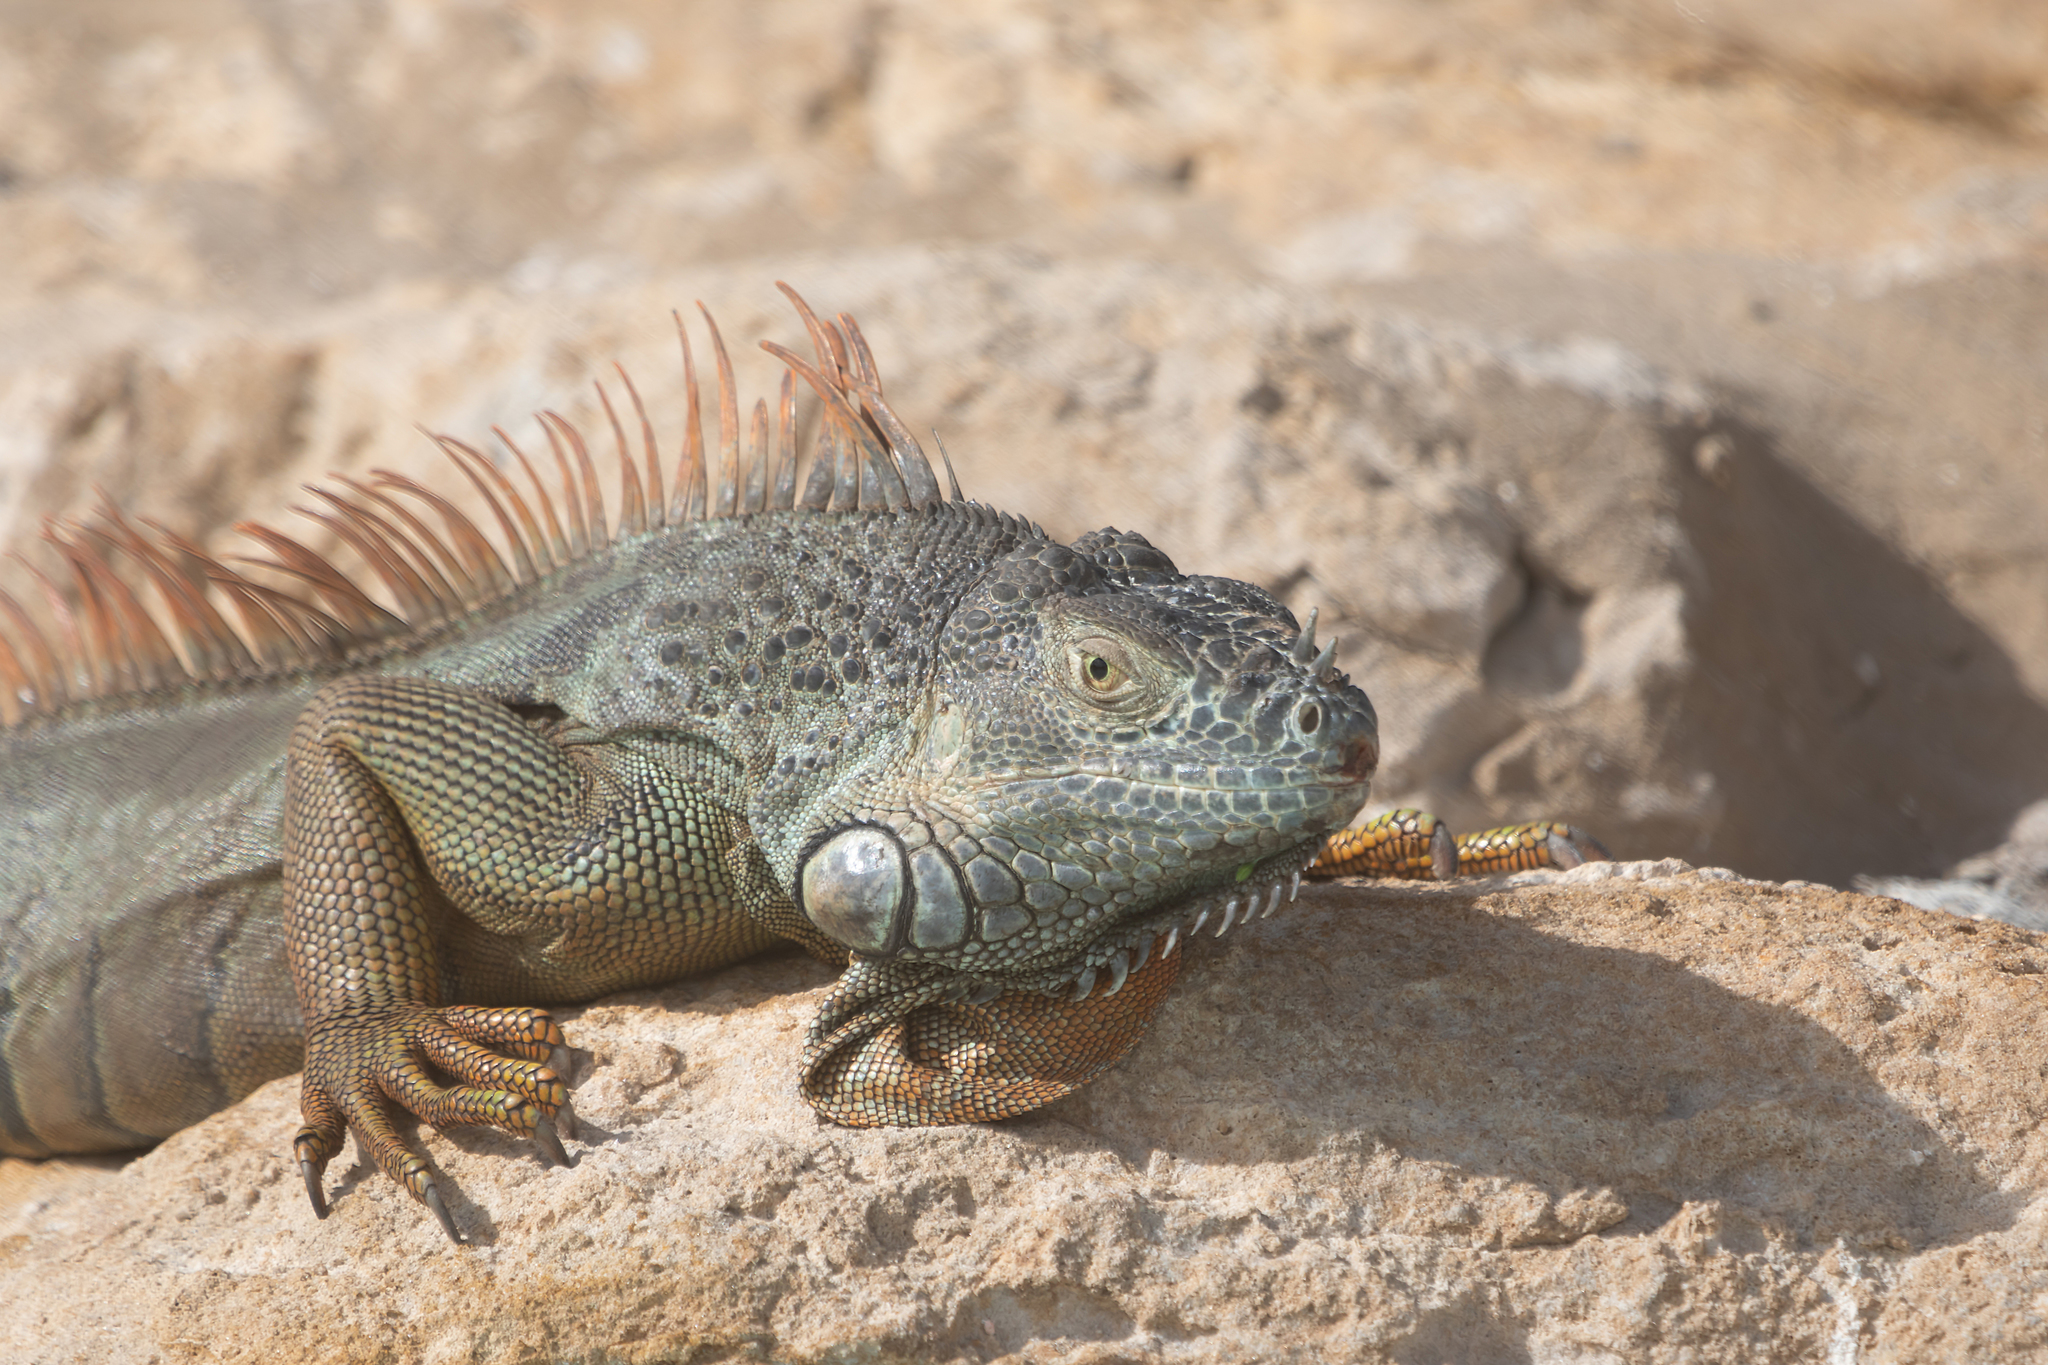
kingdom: Animalia
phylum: Chordata
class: Squamata
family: Iguanidae
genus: Iguana
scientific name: Iguana iguana
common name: Green iguana
